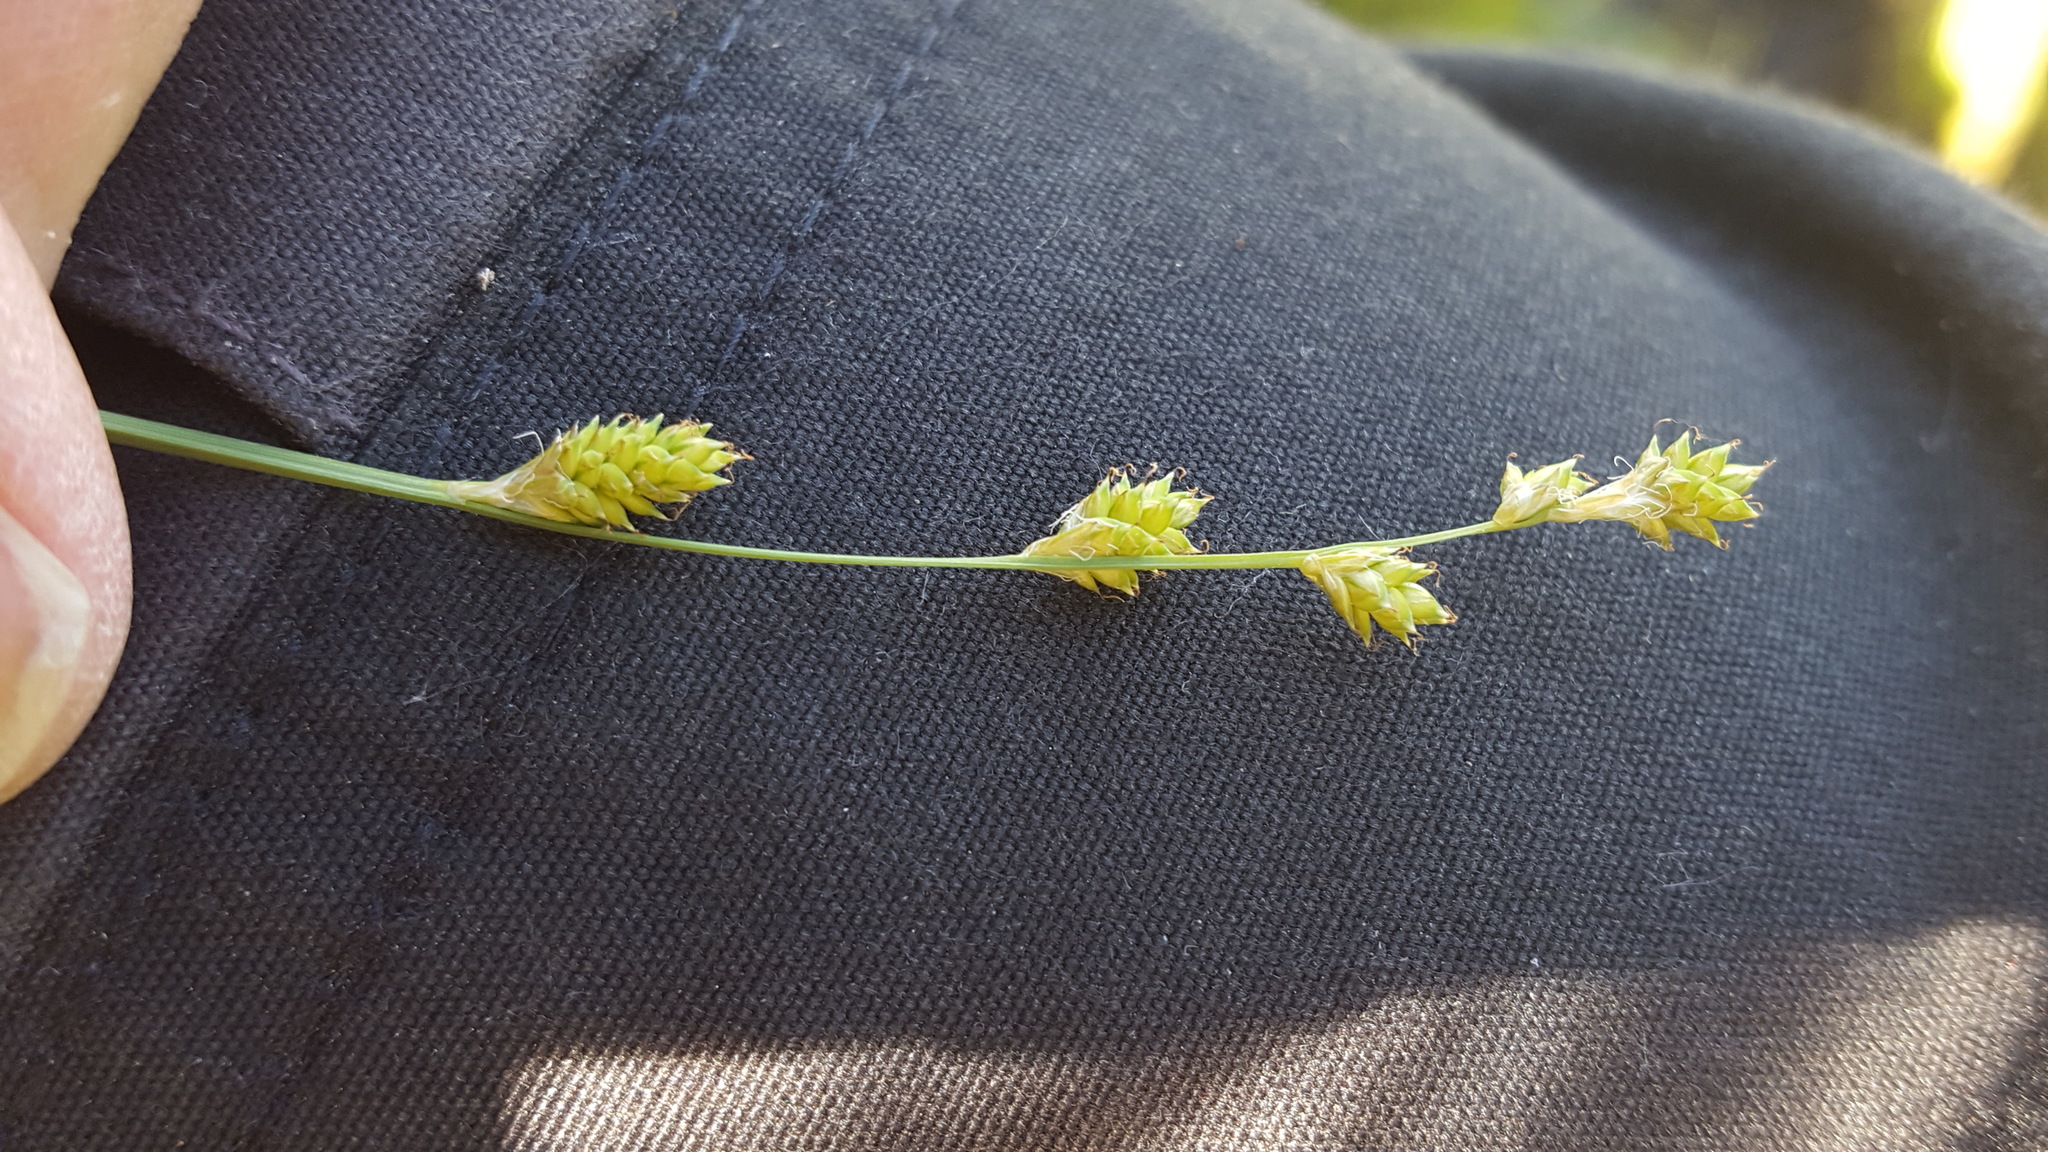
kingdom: Plantae
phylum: Tracheophyta
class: Liliopsida
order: Poales
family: Cyperaceae
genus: Carex
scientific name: Carex canescens
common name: White sedge
